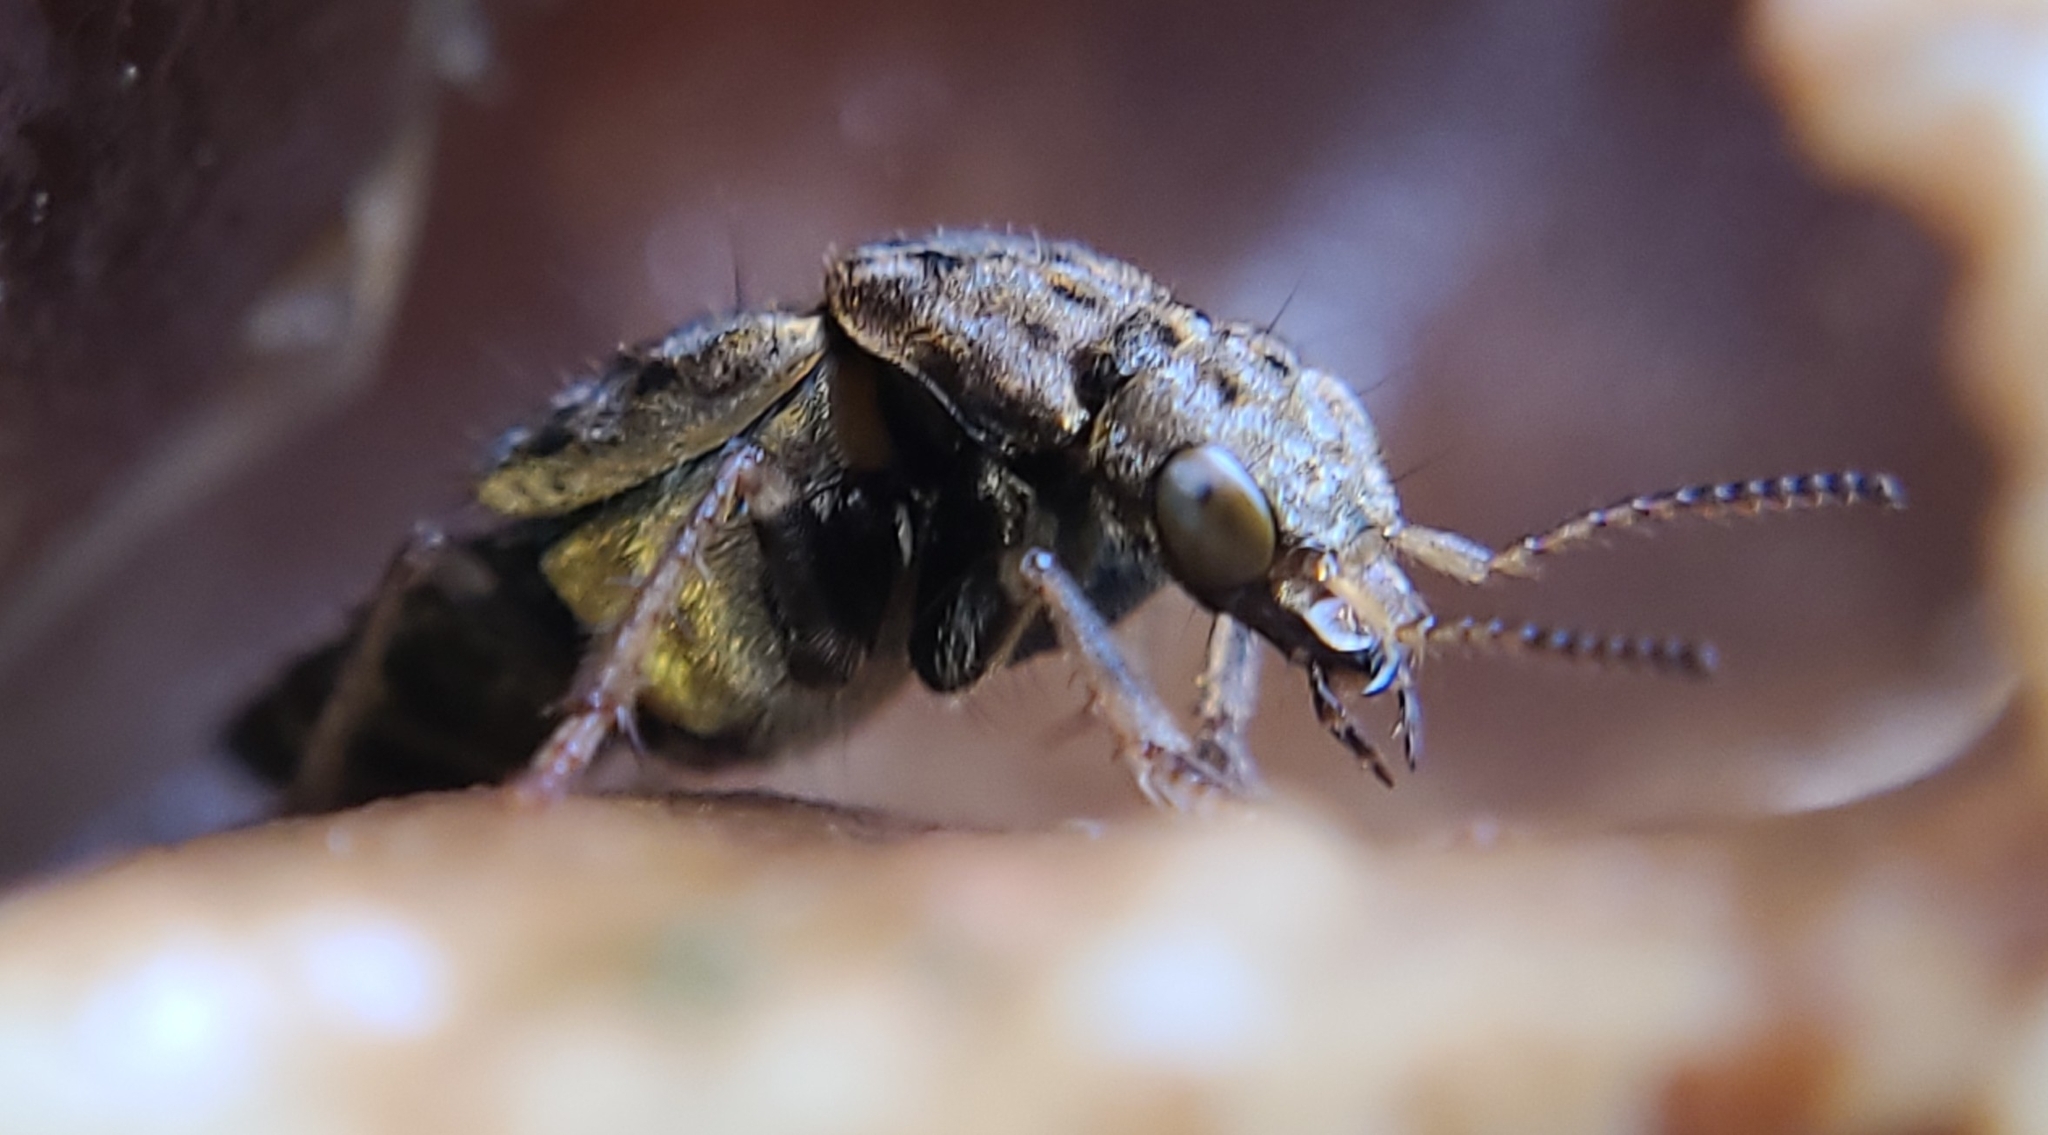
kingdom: Animalia
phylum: Arthropoda
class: Insecta
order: Coleoptera
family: Staphylinidae
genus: Ontholestes
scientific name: Ontholestes cingulatus
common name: Gold-and-brown rove beetle
